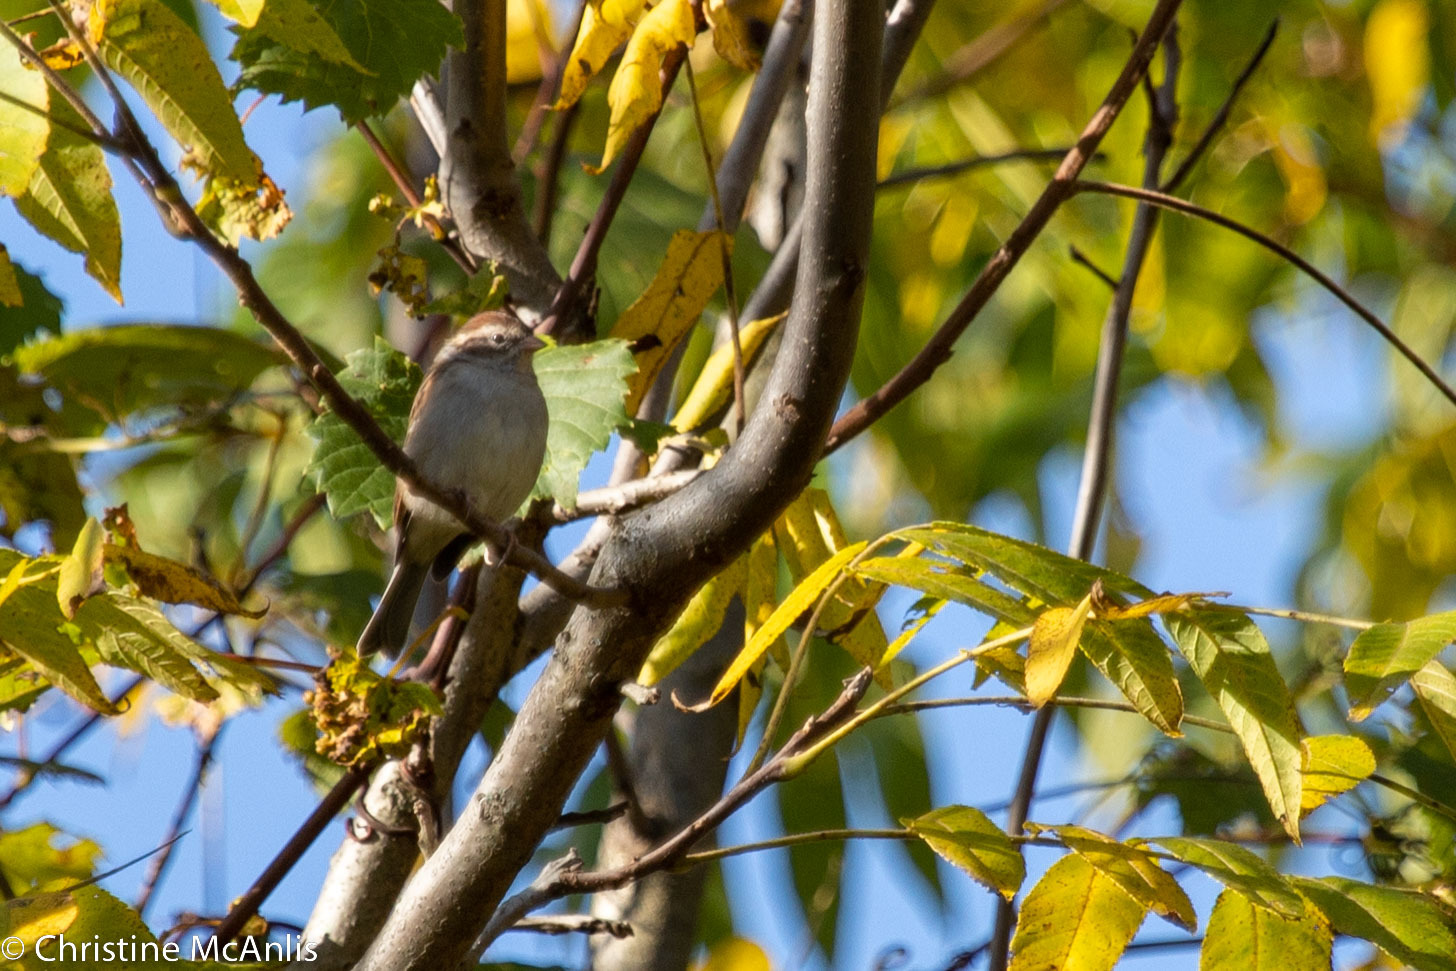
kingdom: Animalia
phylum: Chordata
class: Aves
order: Passeriformes
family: Passerellidae
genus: Spizella
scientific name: Spizella passerina
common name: Chipping sparrow
